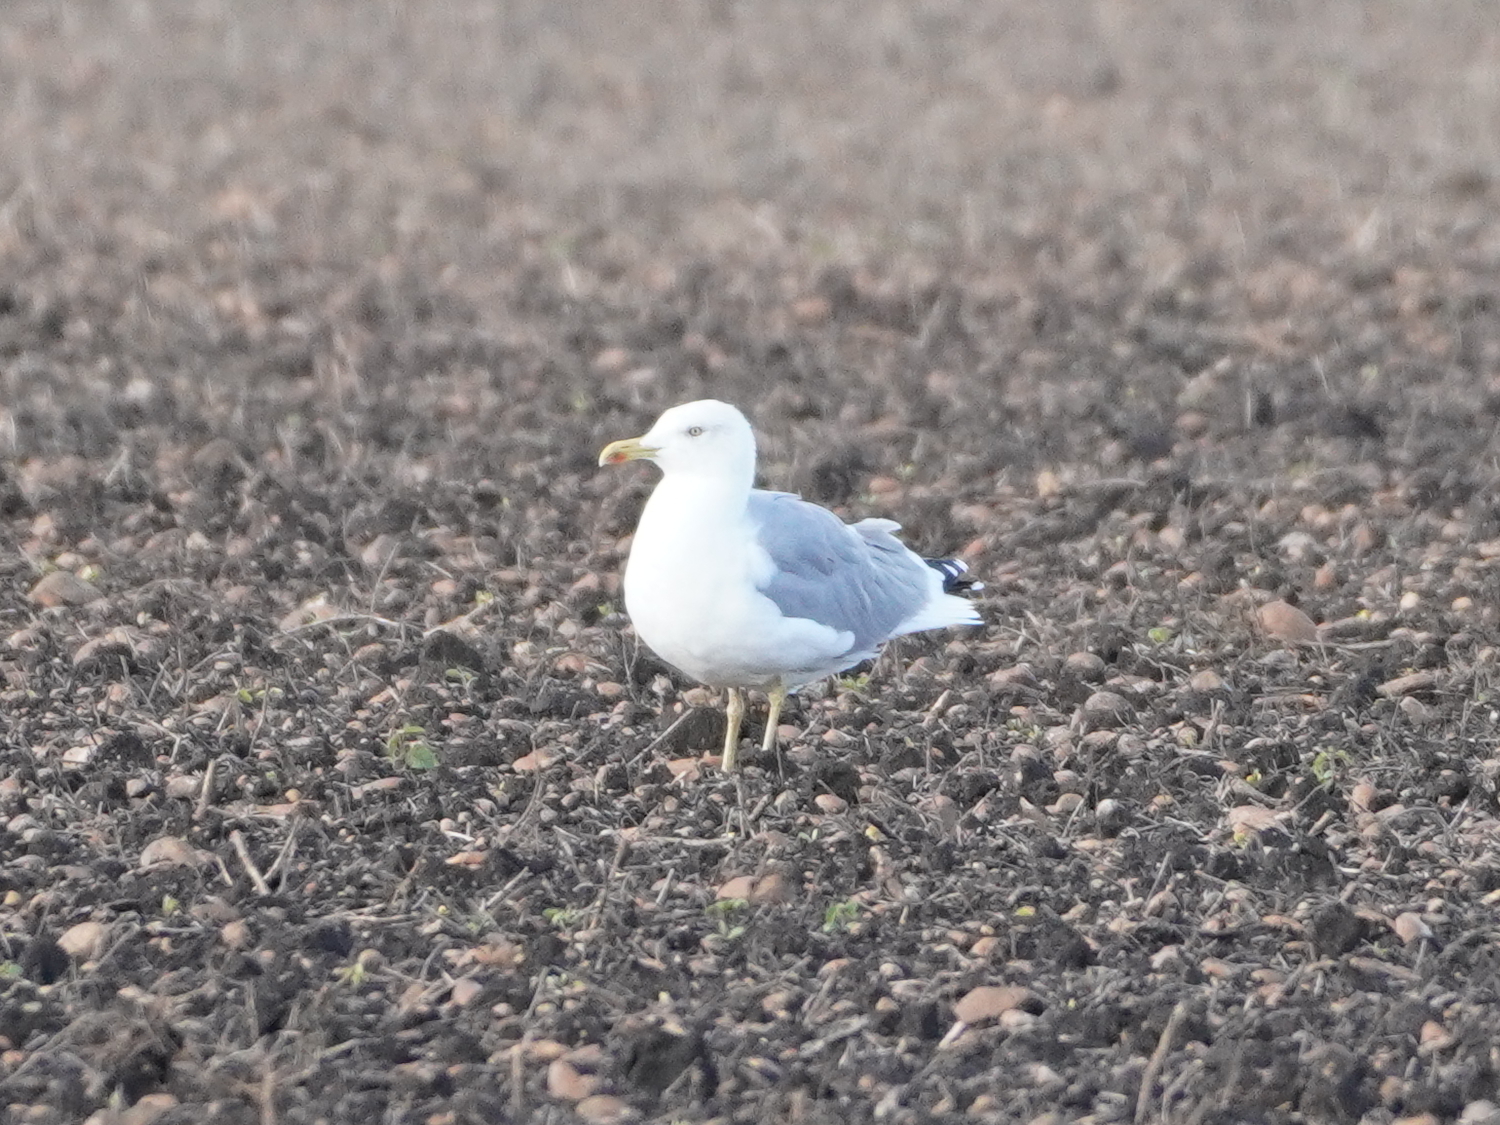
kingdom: Animalia
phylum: Chordata
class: Aves
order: Charadriiformes
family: Laridae
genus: Larus
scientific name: Larus michahellis
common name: Yellow-legged gull
